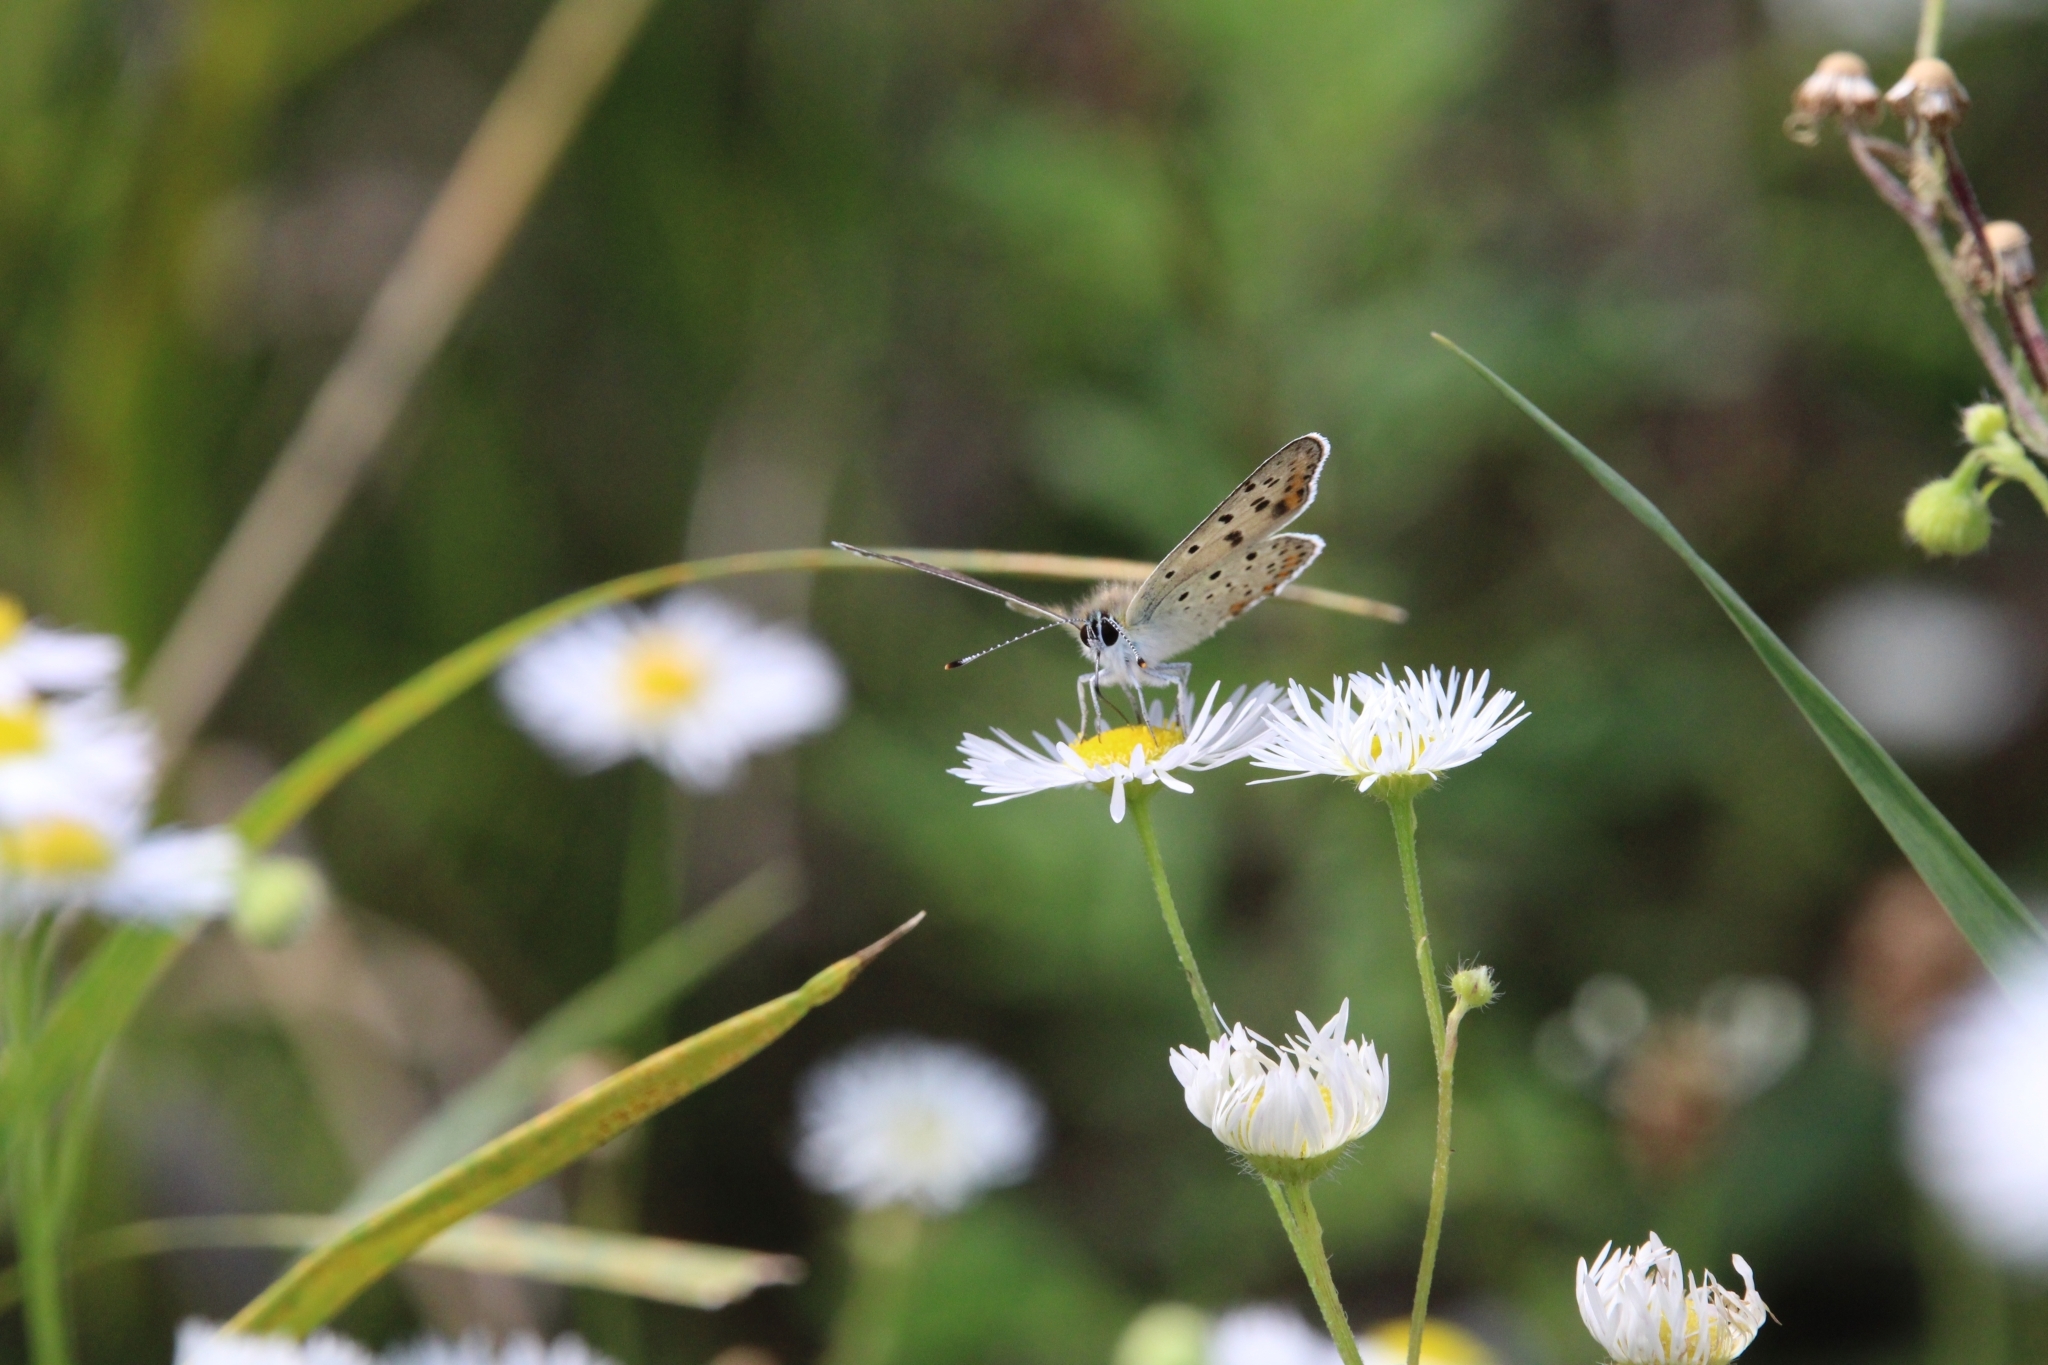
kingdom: Animalia
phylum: Arthropoda
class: Insecta
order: Lepidoptera
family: Lycaenidae
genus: Loweia
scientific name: Loweia tityrus
